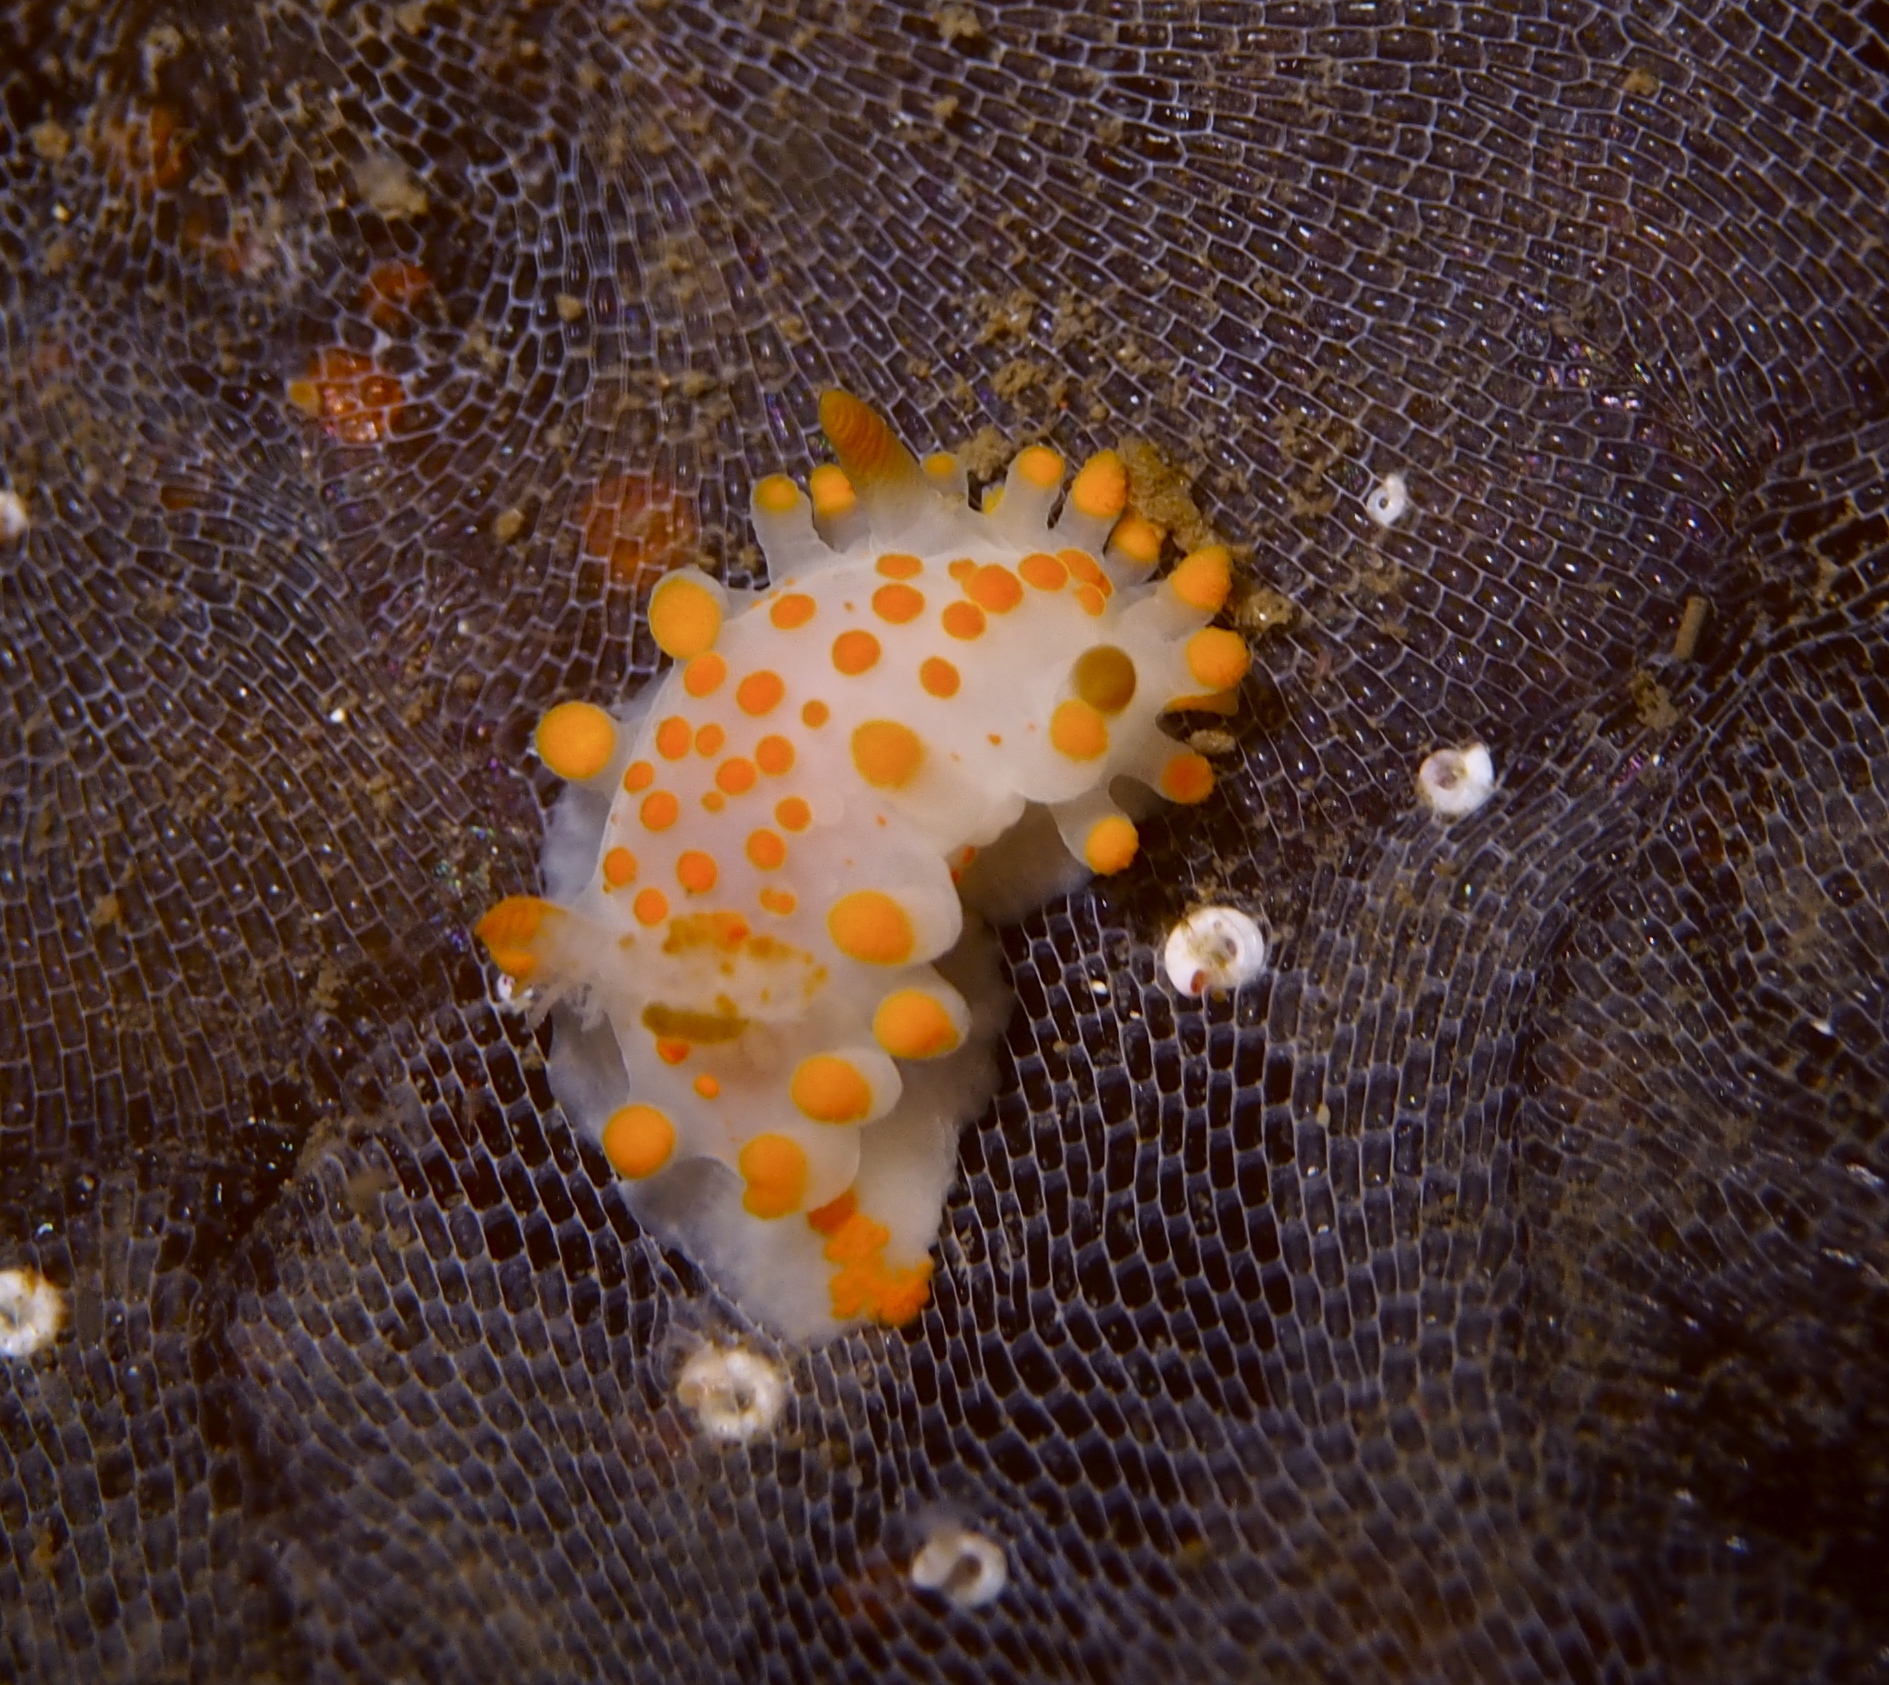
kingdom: Animalia
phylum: Mollusca
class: Gastropoda
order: Nudibranchia
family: Polyceridae
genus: Limacia
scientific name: Limacia clavigera
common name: Orange-clubbed sea slug
